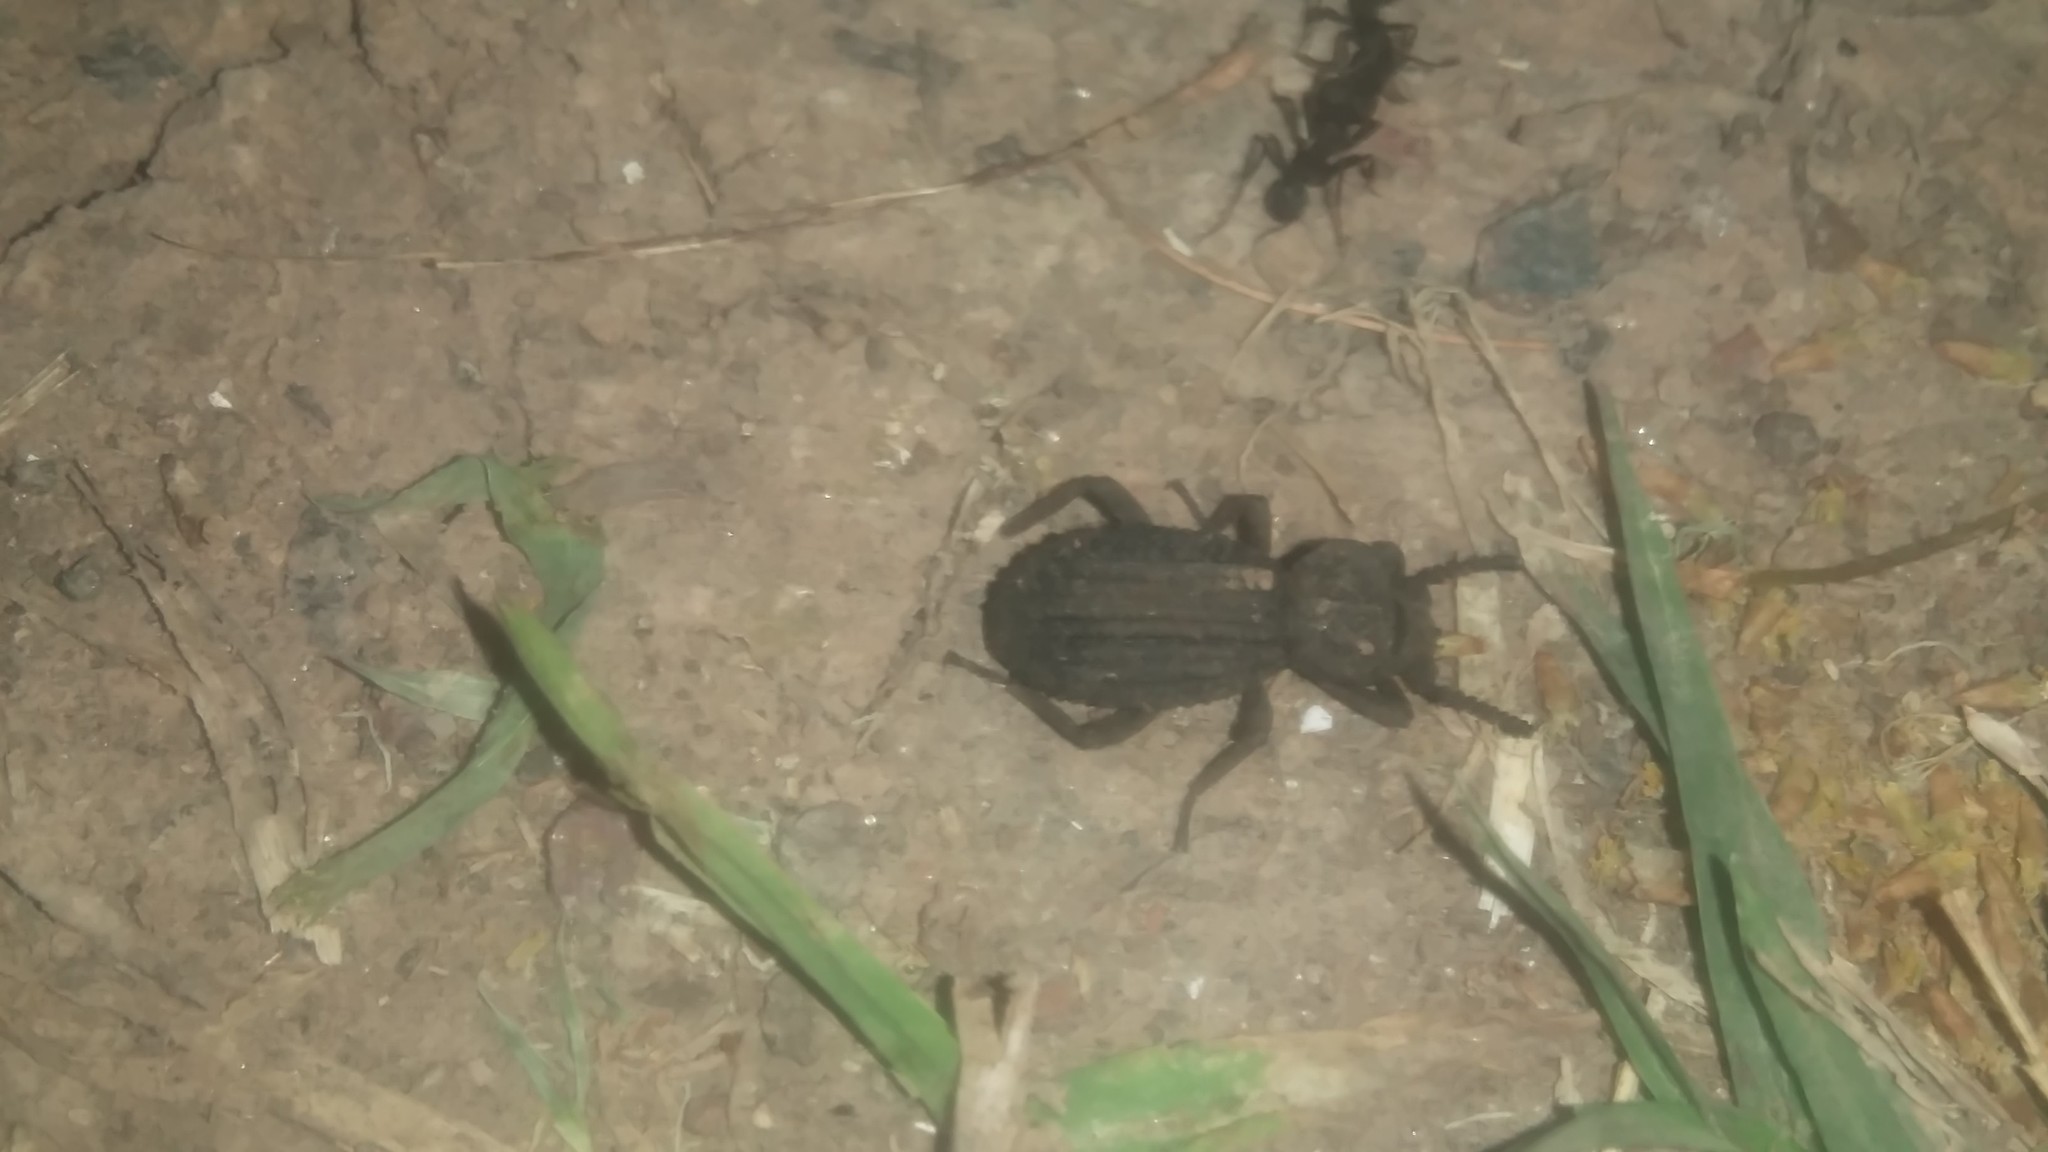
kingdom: Animalia
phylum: Arthropoda
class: Insecta
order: Coleoptera
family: Tenebrionidae
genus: Leptynoderes
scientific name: Leptynoderes
